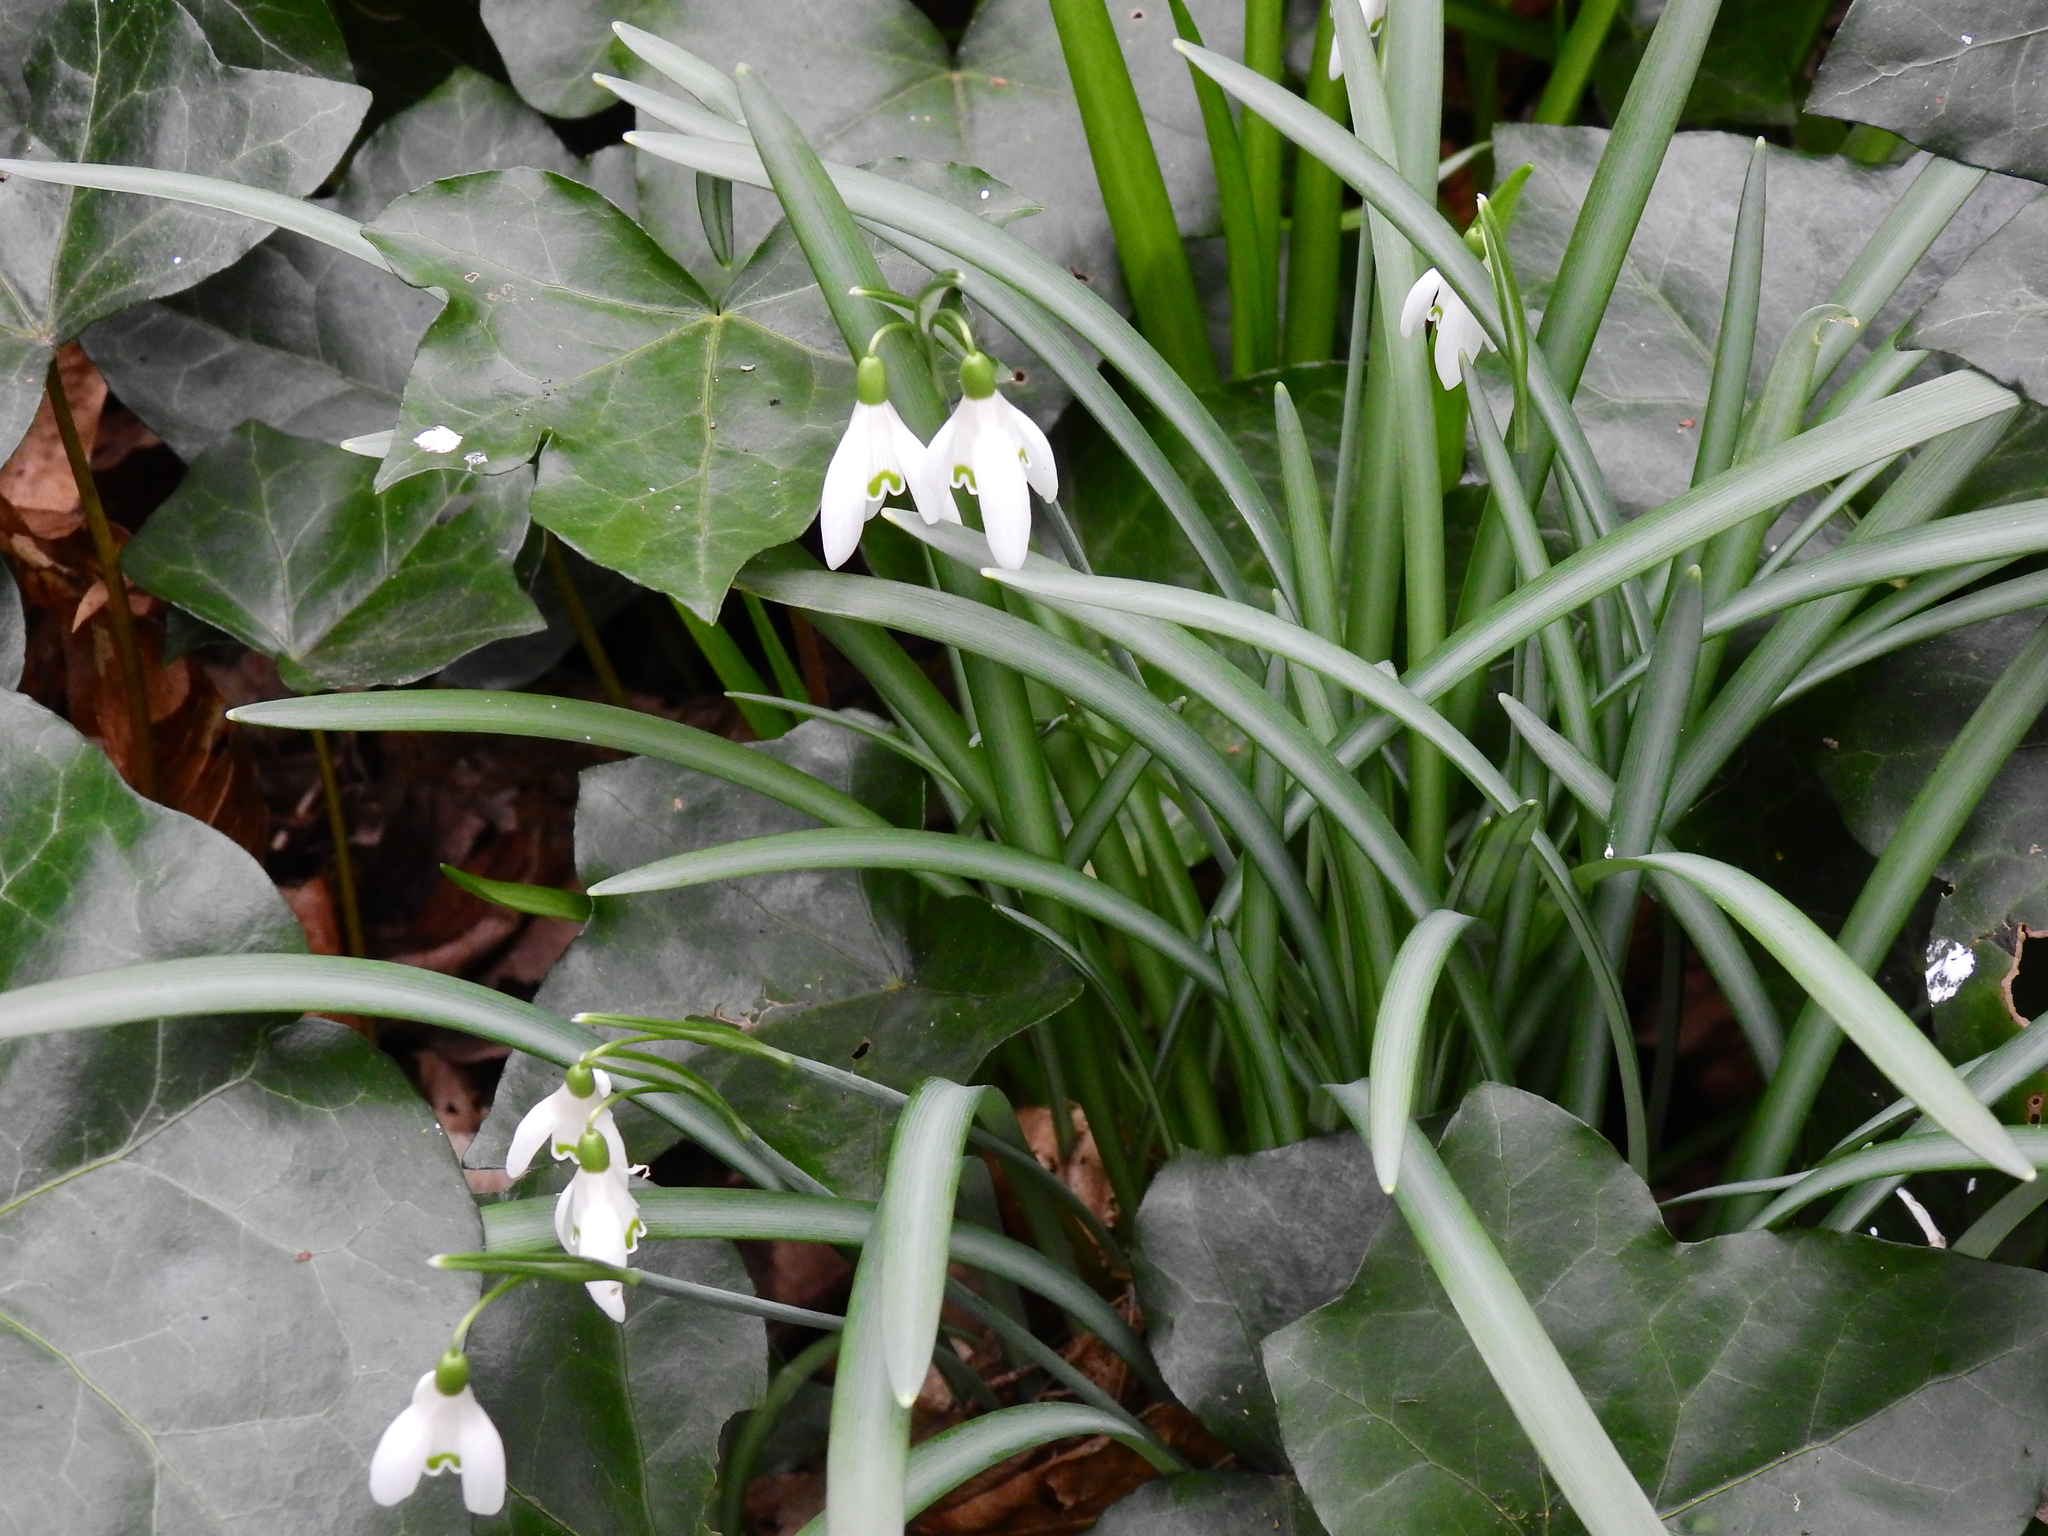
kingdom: Plantae
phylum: Tracheophyta
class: Liliopsida
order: Asparagales
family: Amaryllidaceae
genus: Galanthus
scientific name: Galanthus nivalis
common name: Snowdrop
